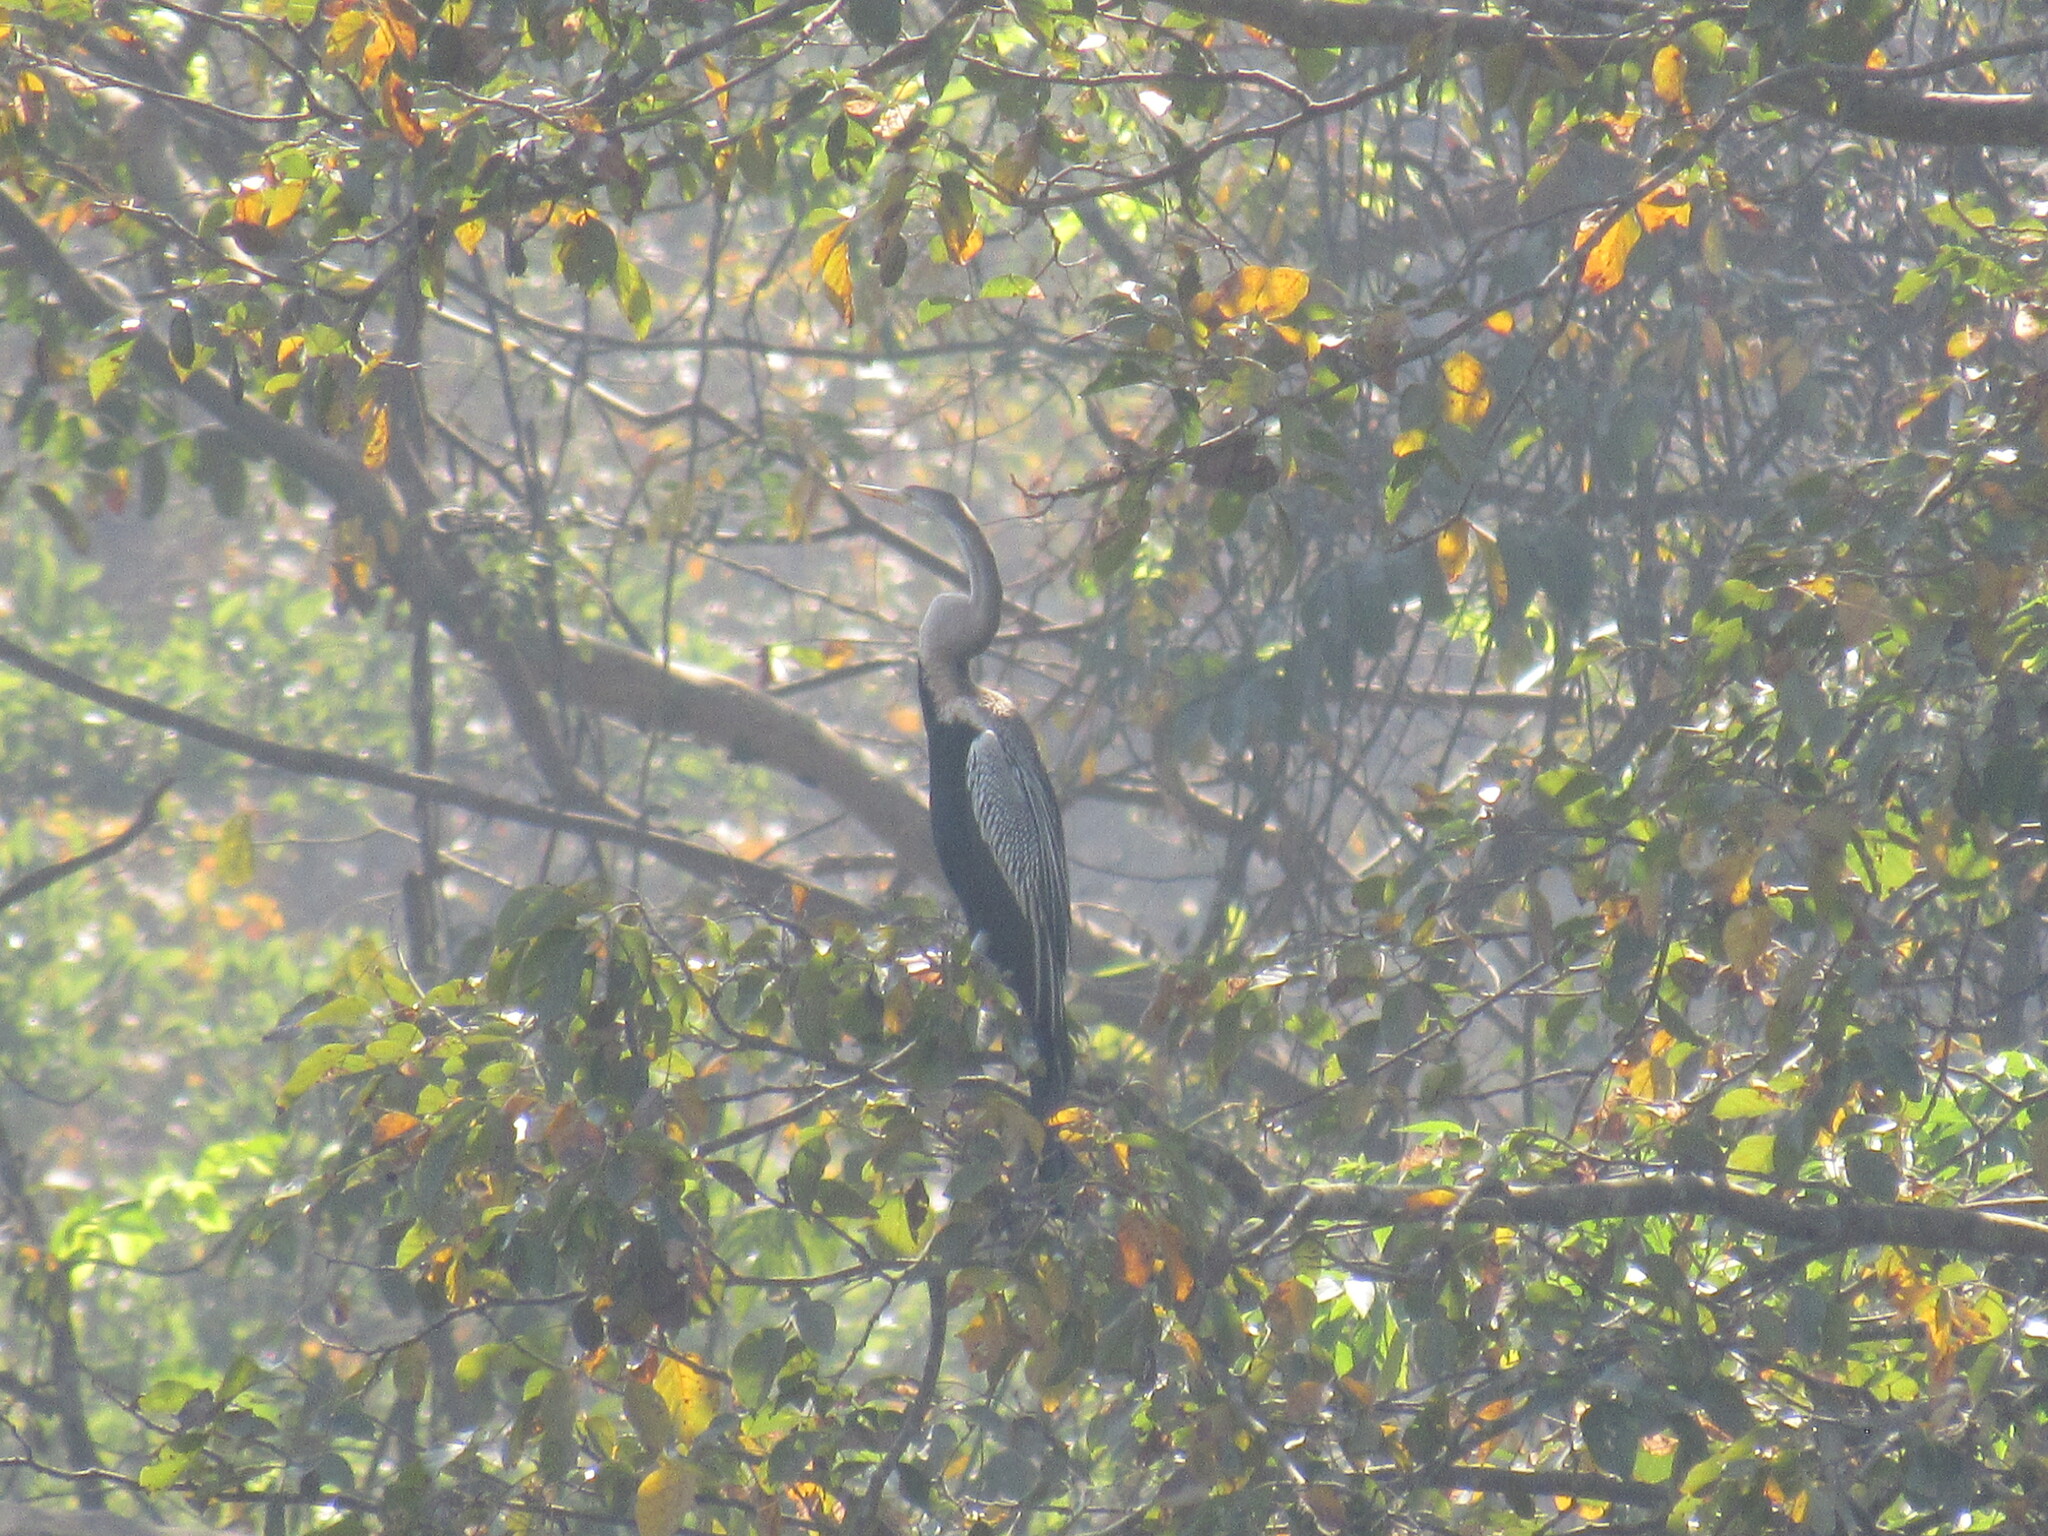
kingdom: Animalia
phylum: Chordata
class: Aves
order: Suliformes
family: Anhingidae
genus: Anhinga
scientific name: Anhinga melanogaster
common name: Oriental darter
